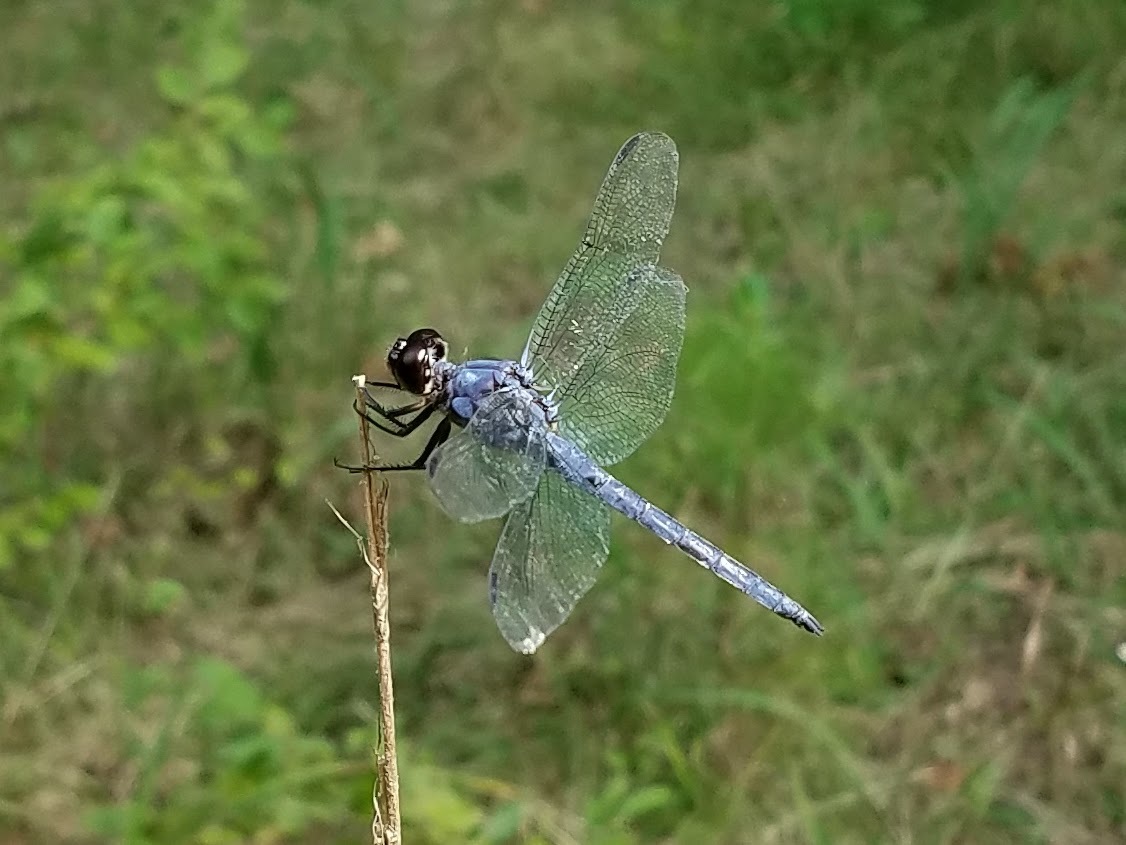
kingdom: Animalia
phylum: Arthropoda
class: Insecta
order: Odonata
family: Libellulidae
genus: Libellula
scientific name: Libellula incesta
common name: Slaty skimmer
